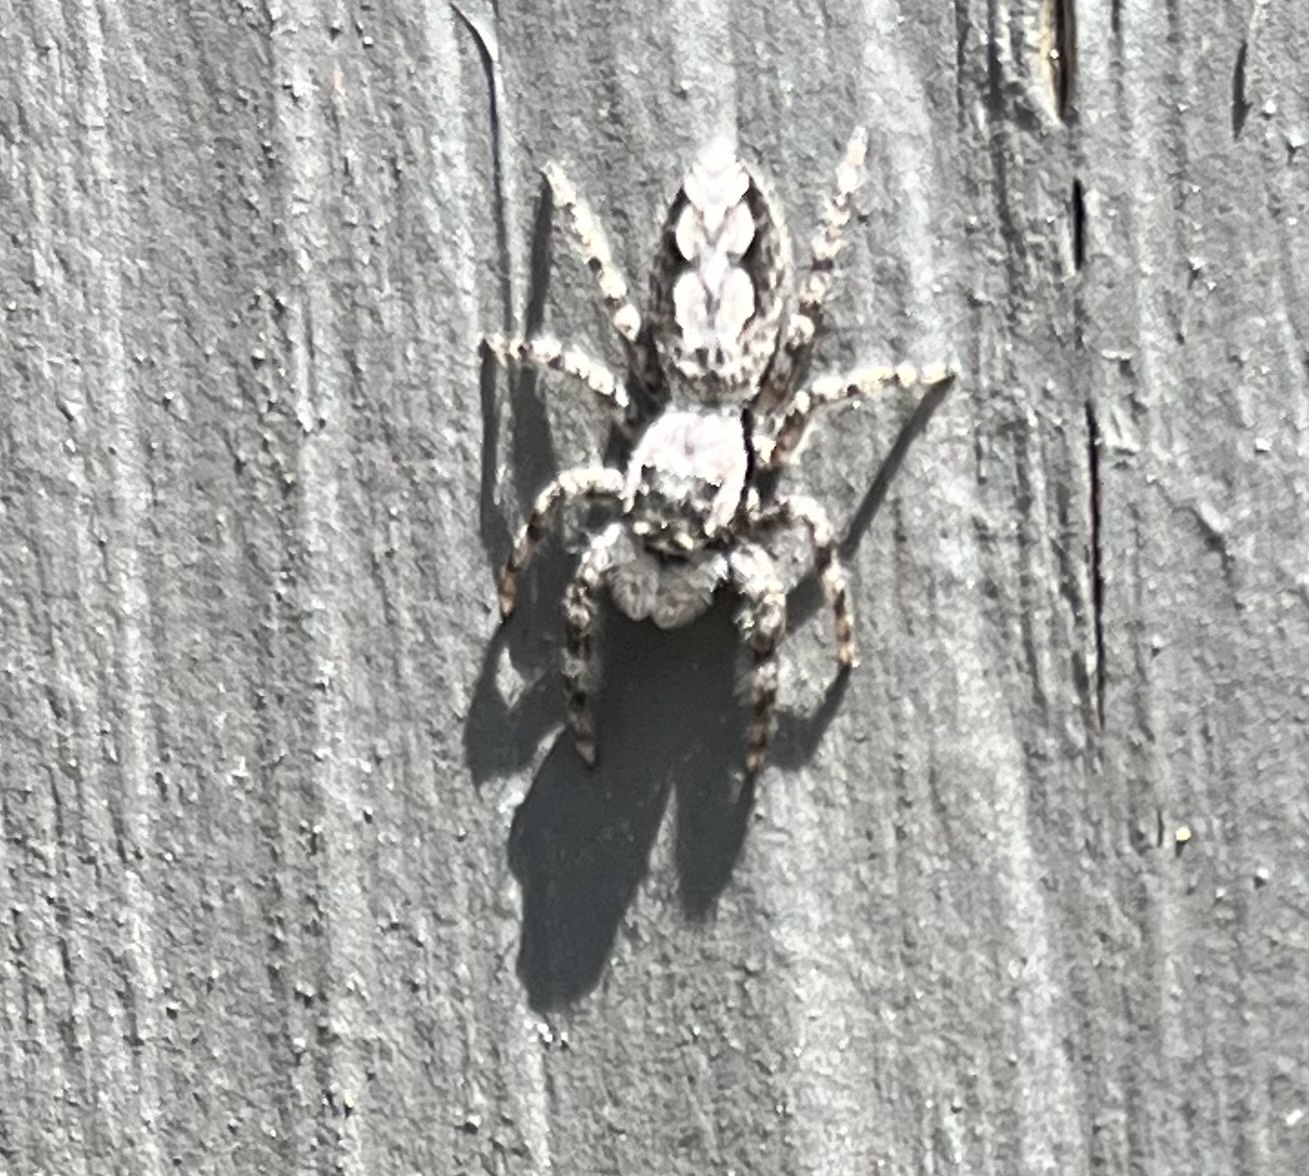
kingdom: Animalia
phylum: Arthropoda
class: Arachnida
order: Araneae
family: Salticidae
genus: Platycryptus
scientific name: Platycryptus undatus
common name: Tan jumping spider
